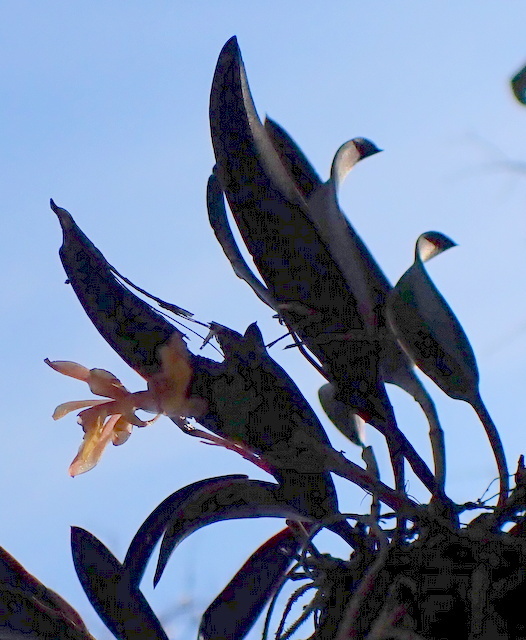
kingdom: Plantae
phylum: Tracheophyta
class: Liliopsida
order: Asparagales
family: Orchidaceae
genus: Epidendrum
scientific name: Epidendrum conopseum
